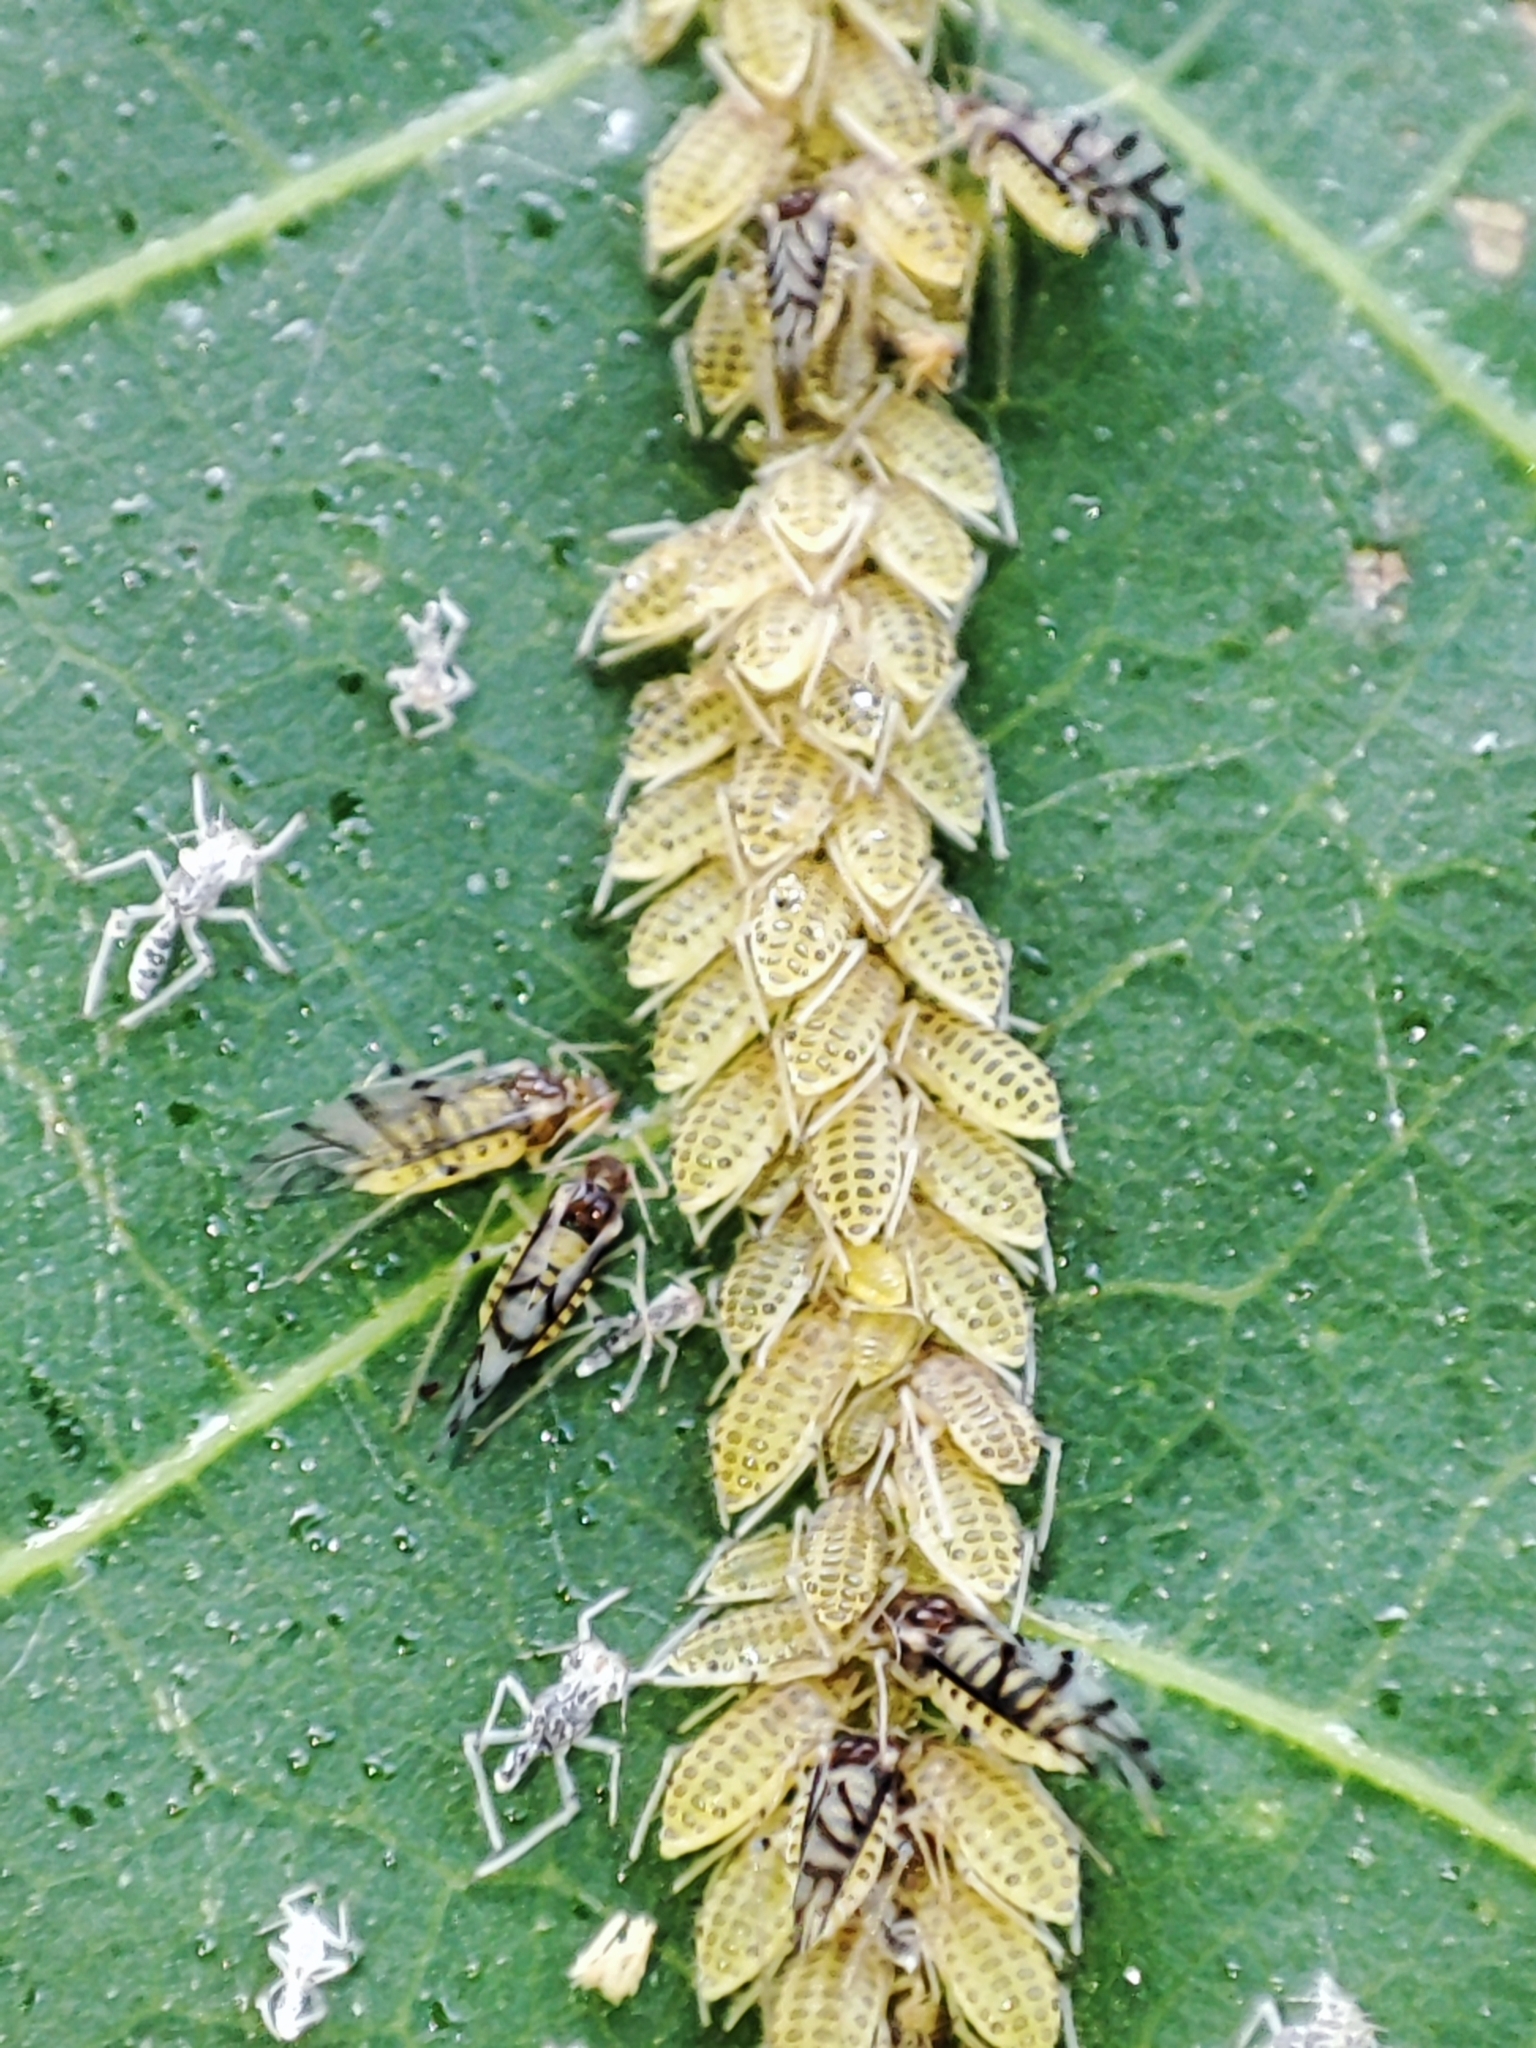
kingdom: Animalia
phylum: Arthropoda
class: Insecta
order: Hemiptera
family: Aphididae
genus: Panaphis
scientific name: Panaphis juglandis
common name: Large walnut aphid
